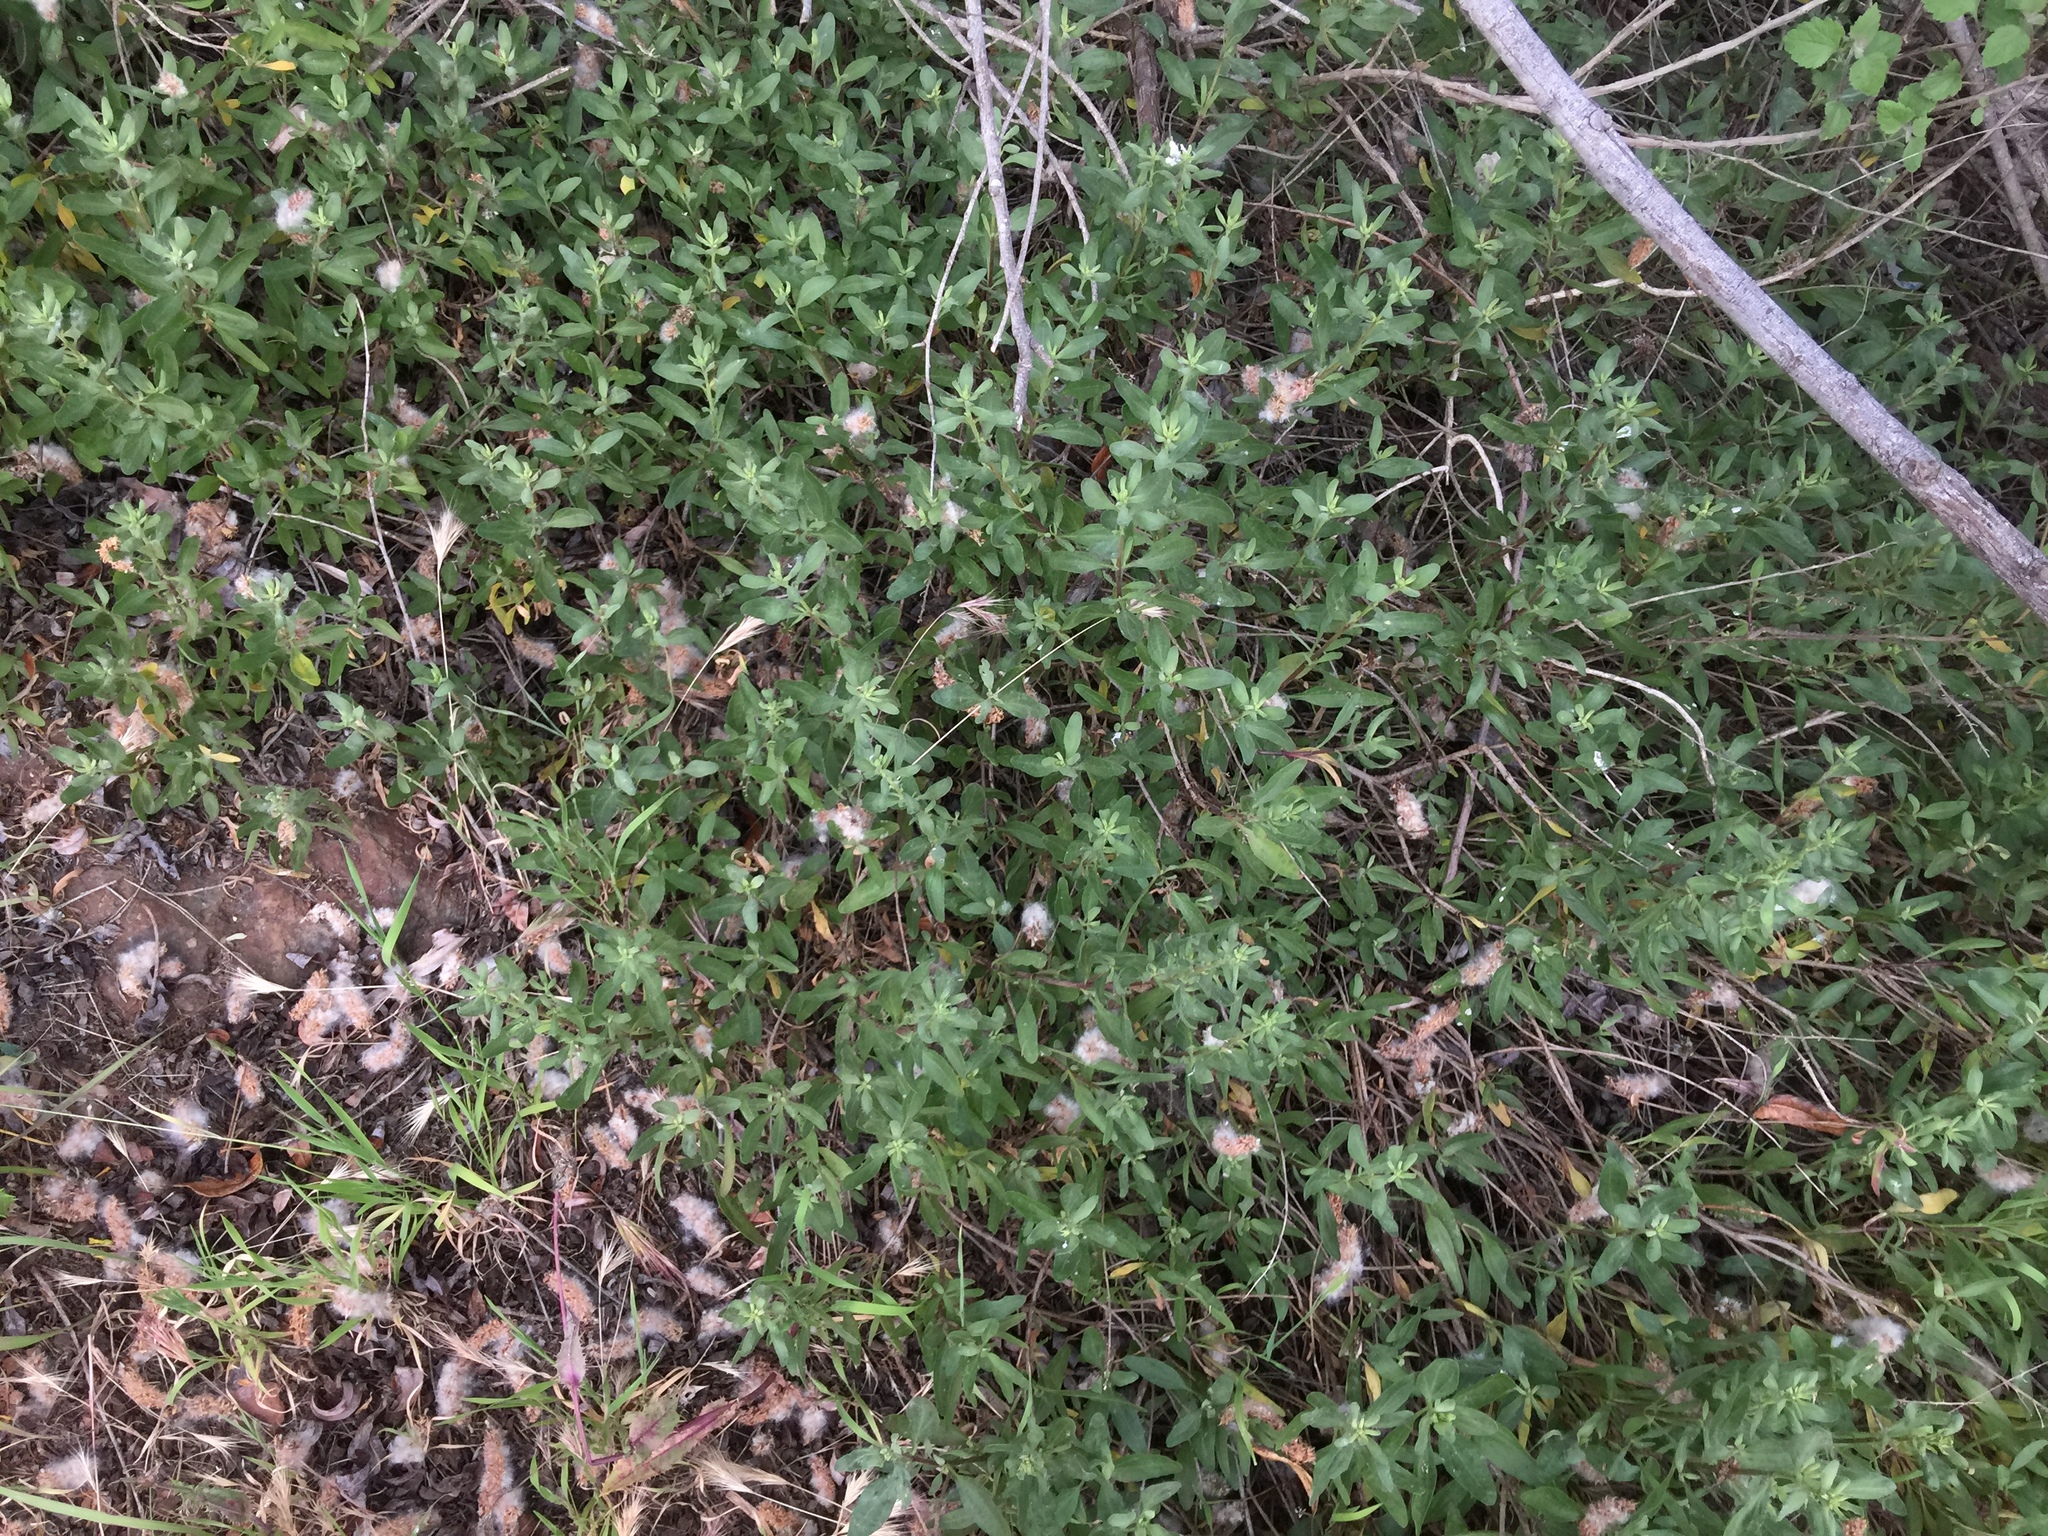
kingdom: Plantae
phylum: Tracheophyta
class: Magnoliopsida
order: Asterales
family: Asteraceae
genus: Iva
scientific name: Iva hayesiana
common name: San diego marsh-elder
